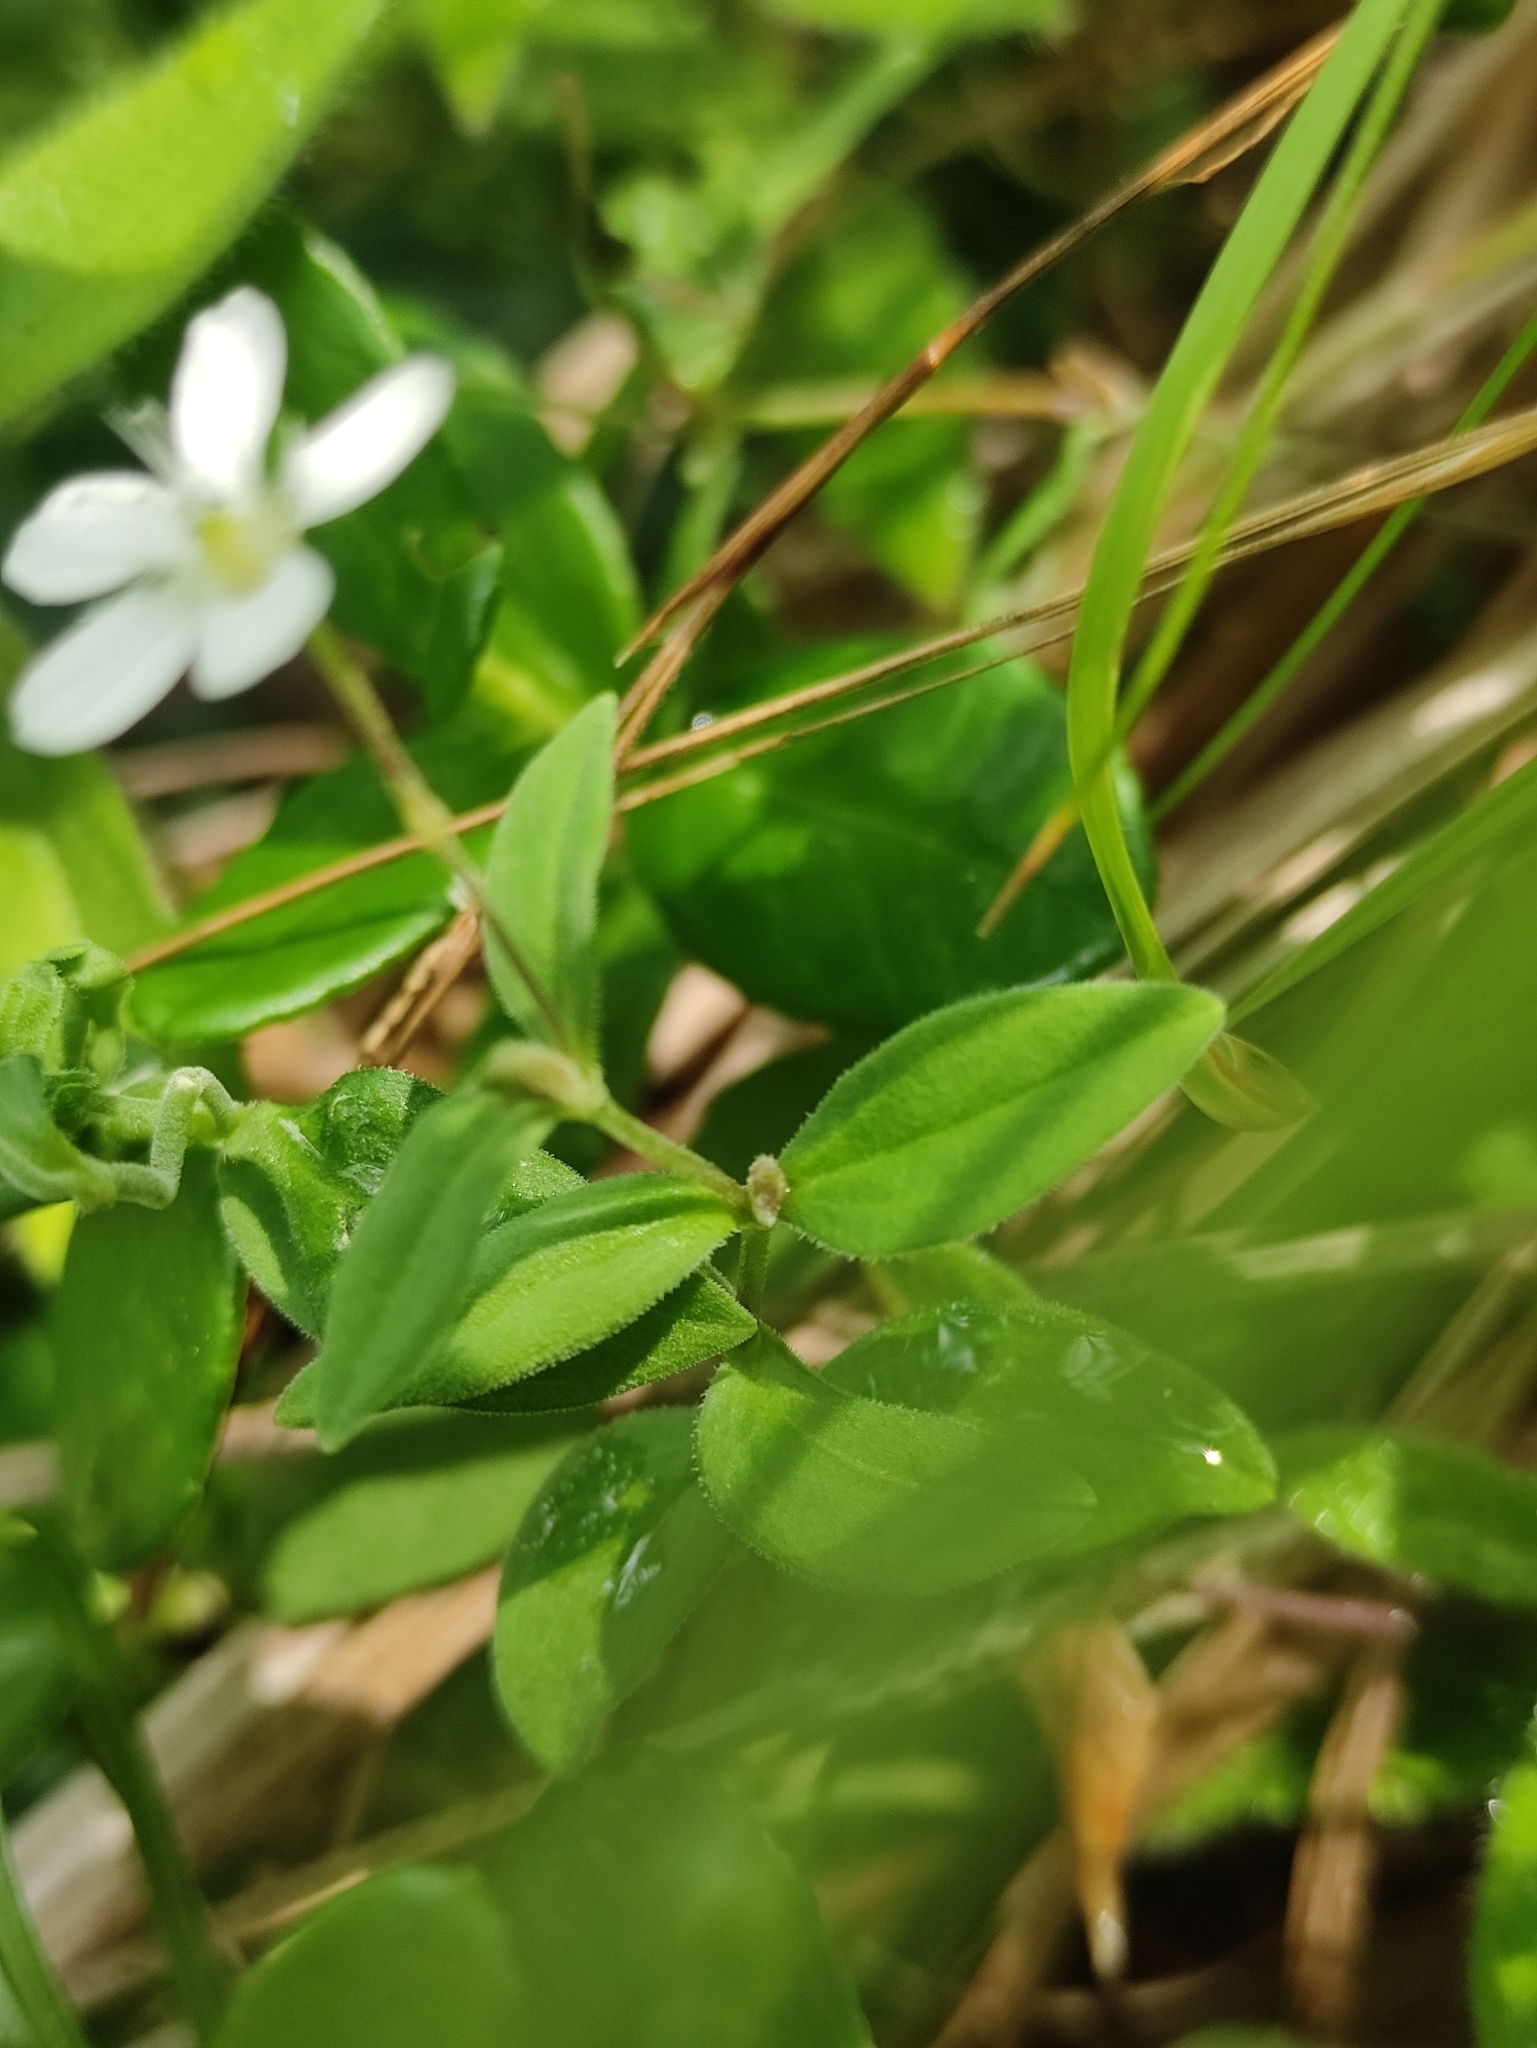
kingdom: Plantae
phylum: Tracheophyta
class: Magnoliopsida
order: Caryophyllales
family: Caryophyllaceae
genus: Moehringia
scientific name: Moehringia lateriflora
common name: Blunt-leaved sandwort
